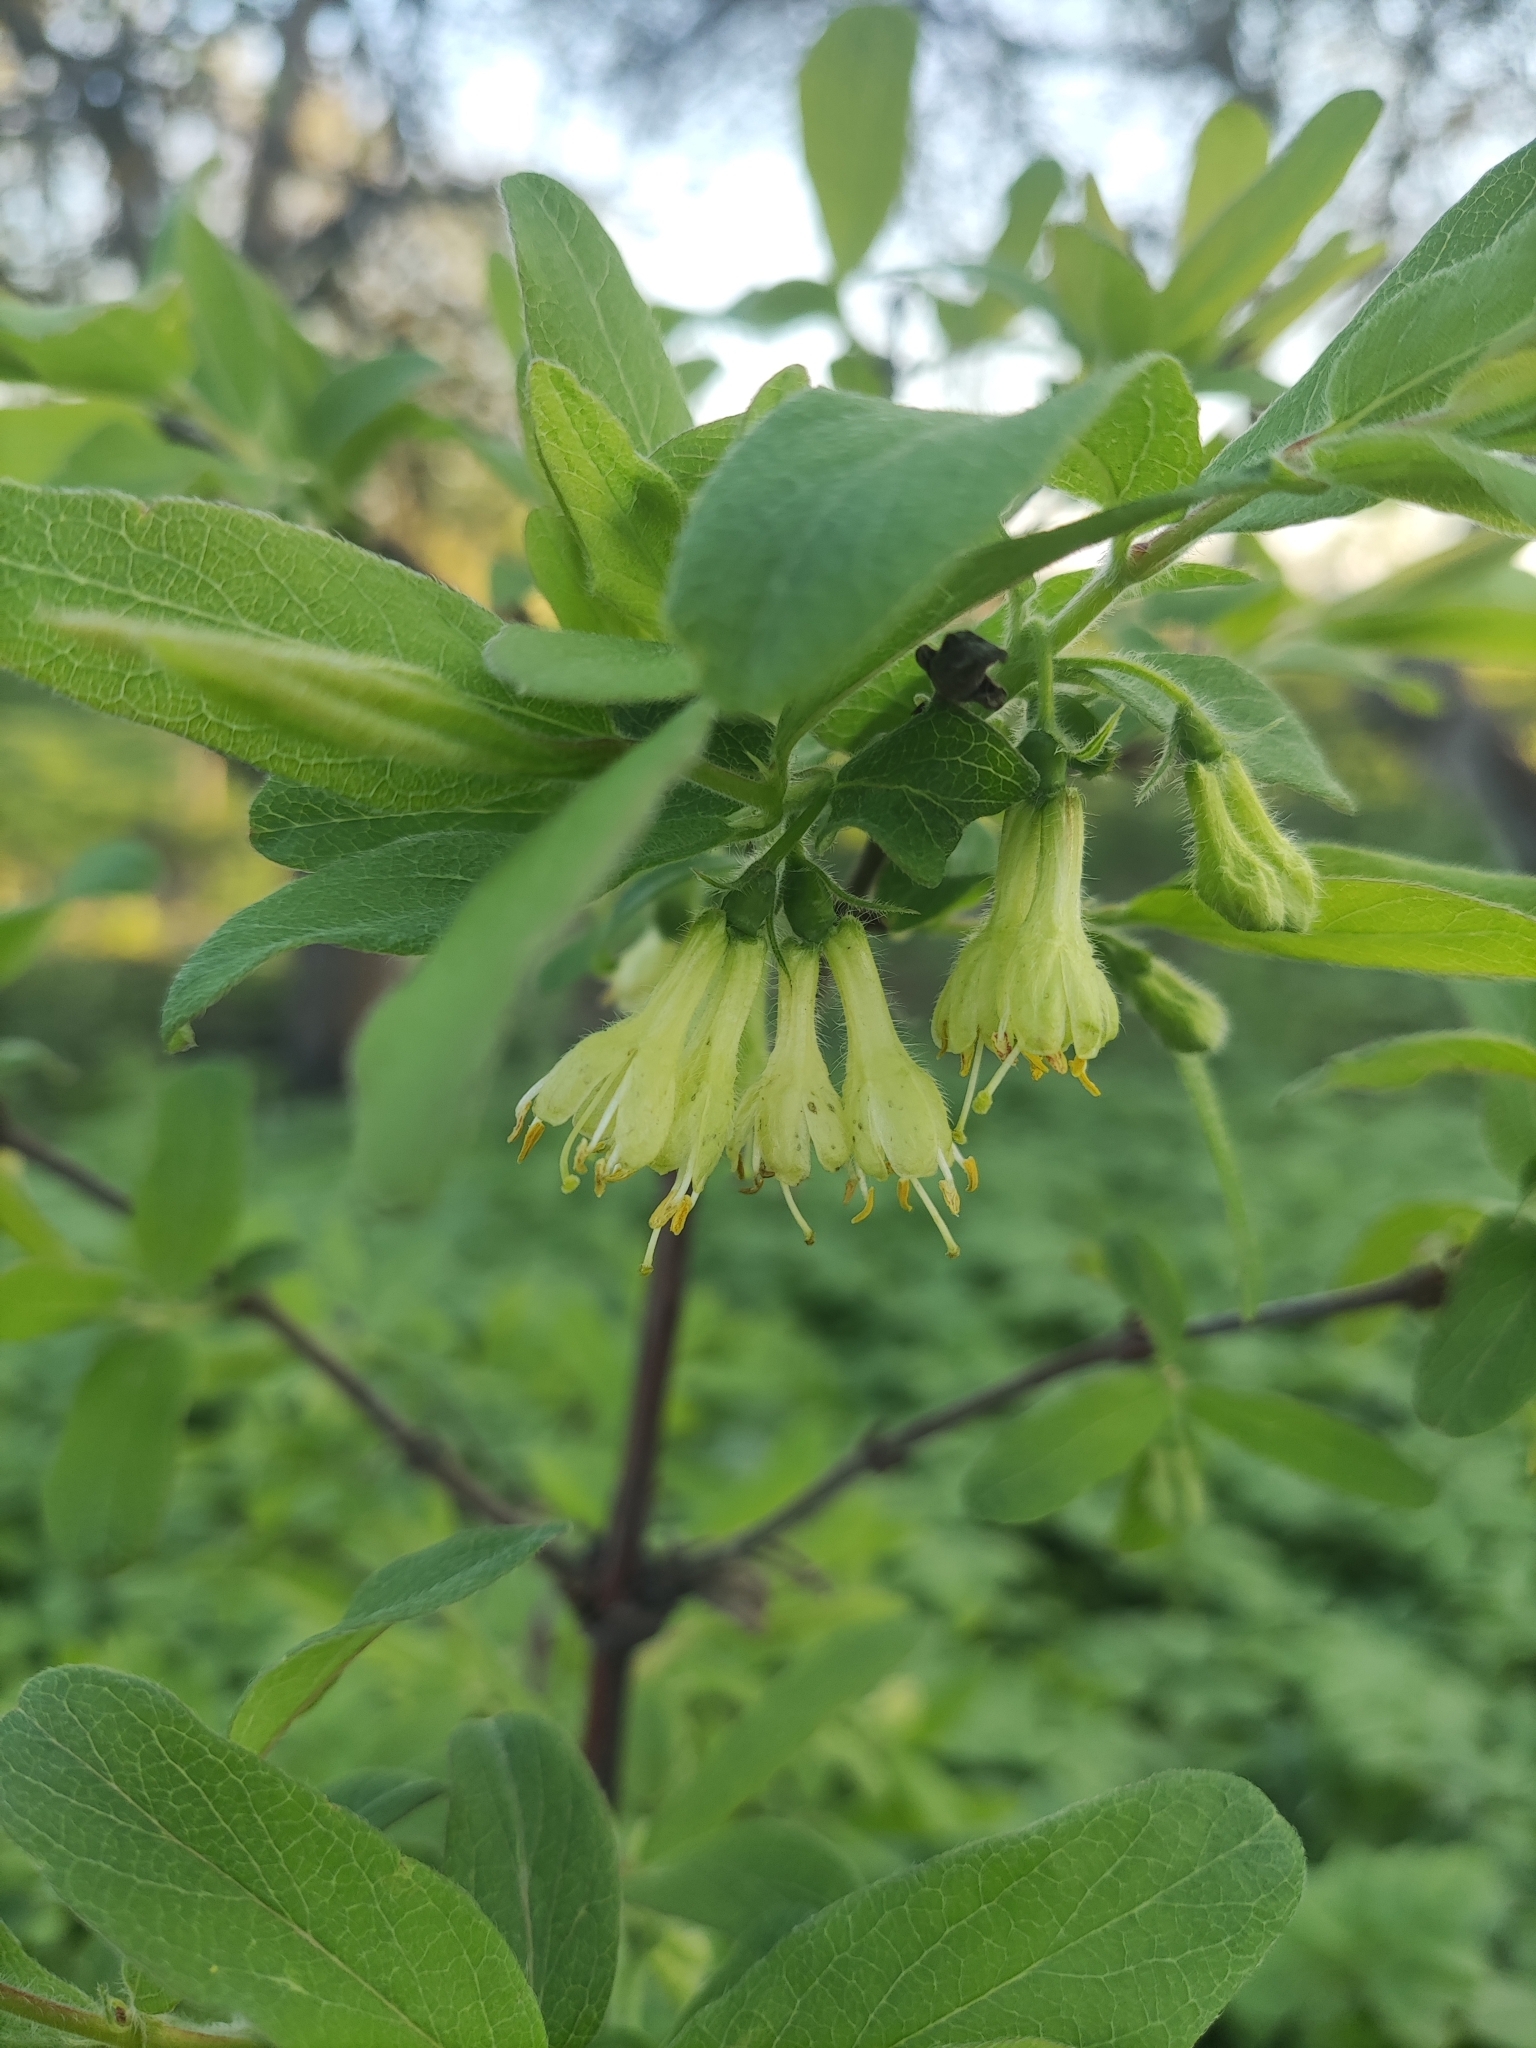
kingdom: Plantae
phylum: Tracheophyta
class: Magnoliopsida
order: Dipsacales
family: Caprifoliaceae
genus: Lonicera
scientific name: Lonicera caerulea
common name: Blue honeysuckle
